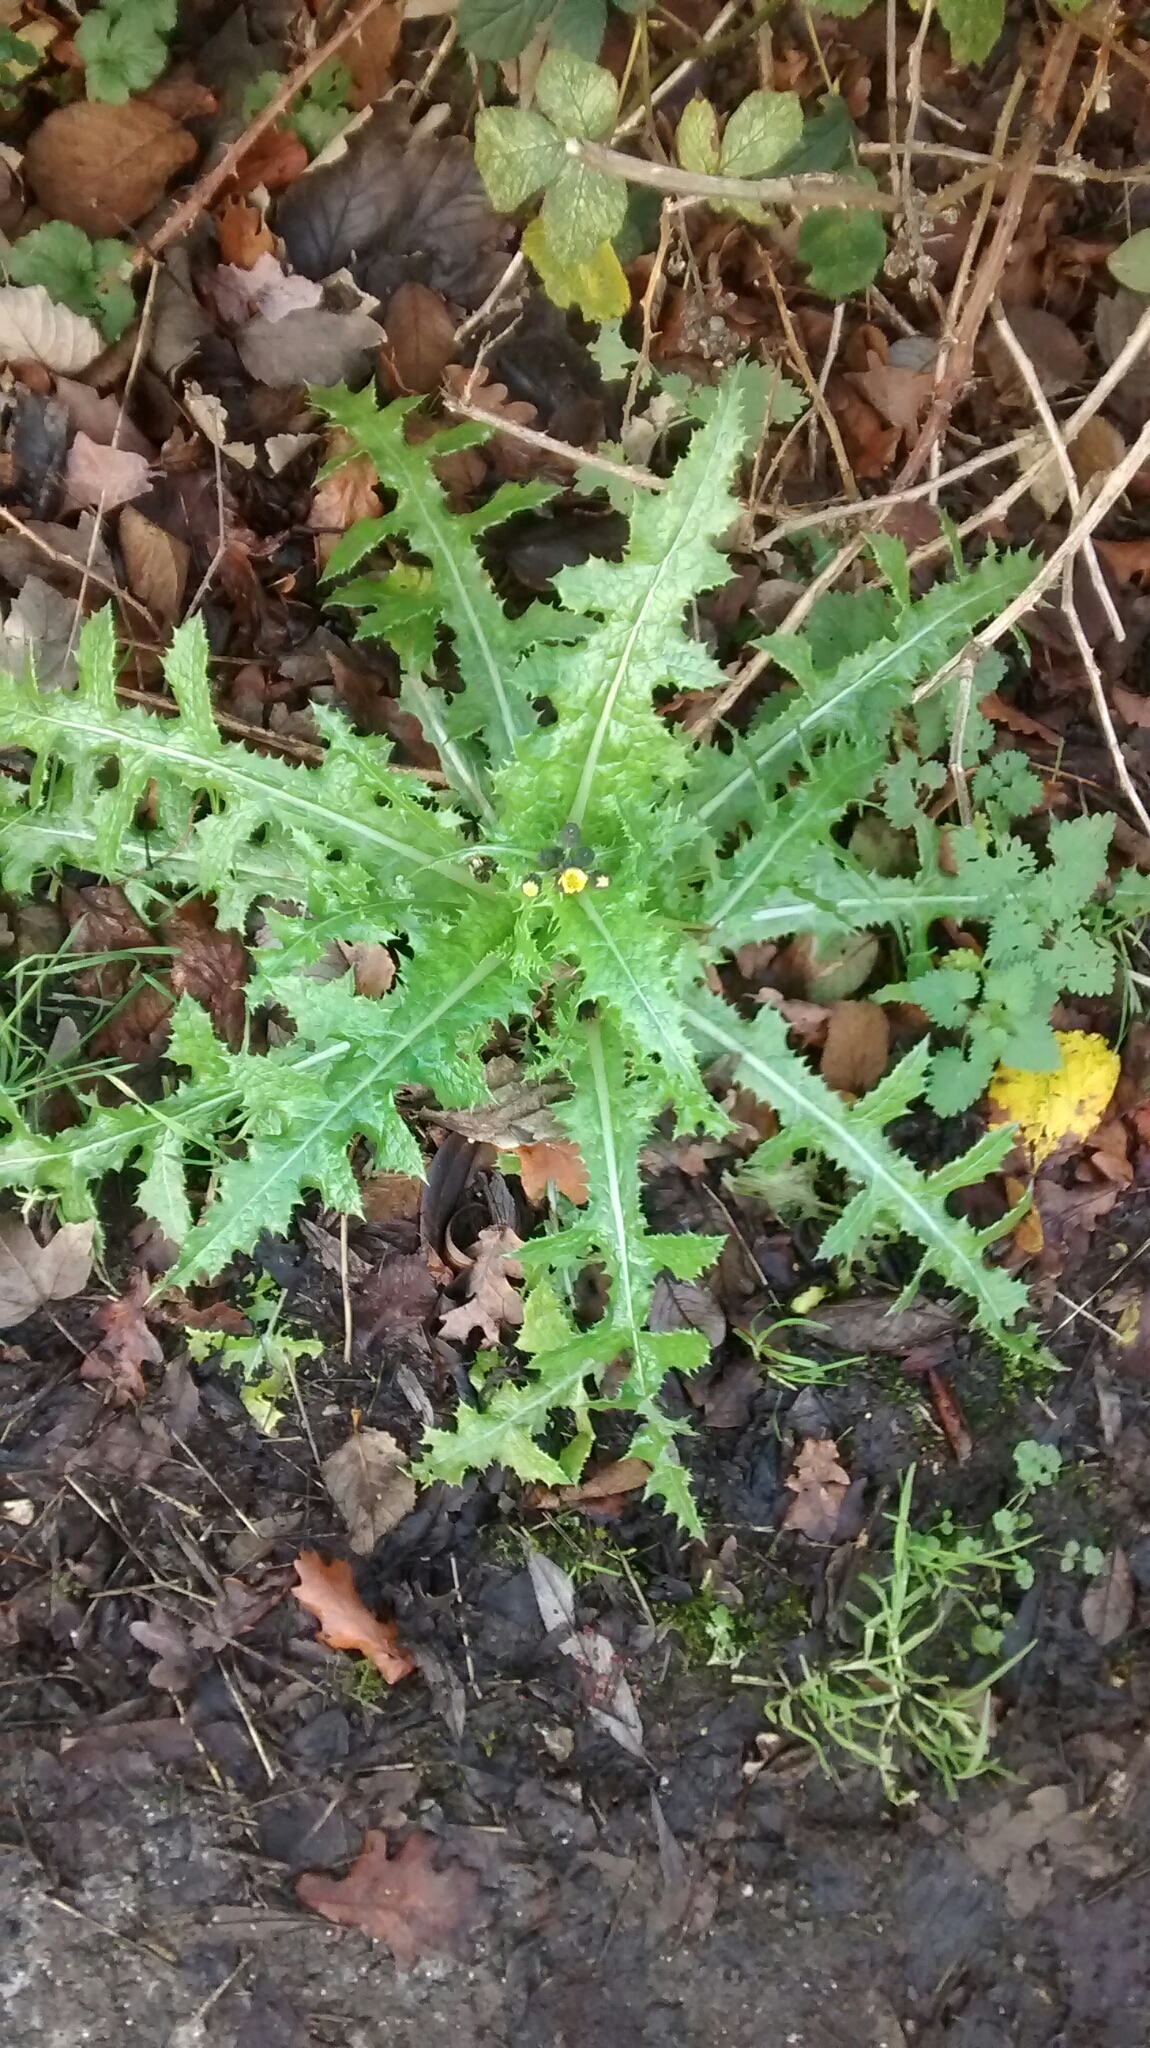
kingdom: Plantae
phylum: Tracheophyta
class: Magnoliopsida
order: Asterales
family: Asteraceae
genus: Sonchus
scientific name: Sonchus asper
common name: Prickly sow-thistle
